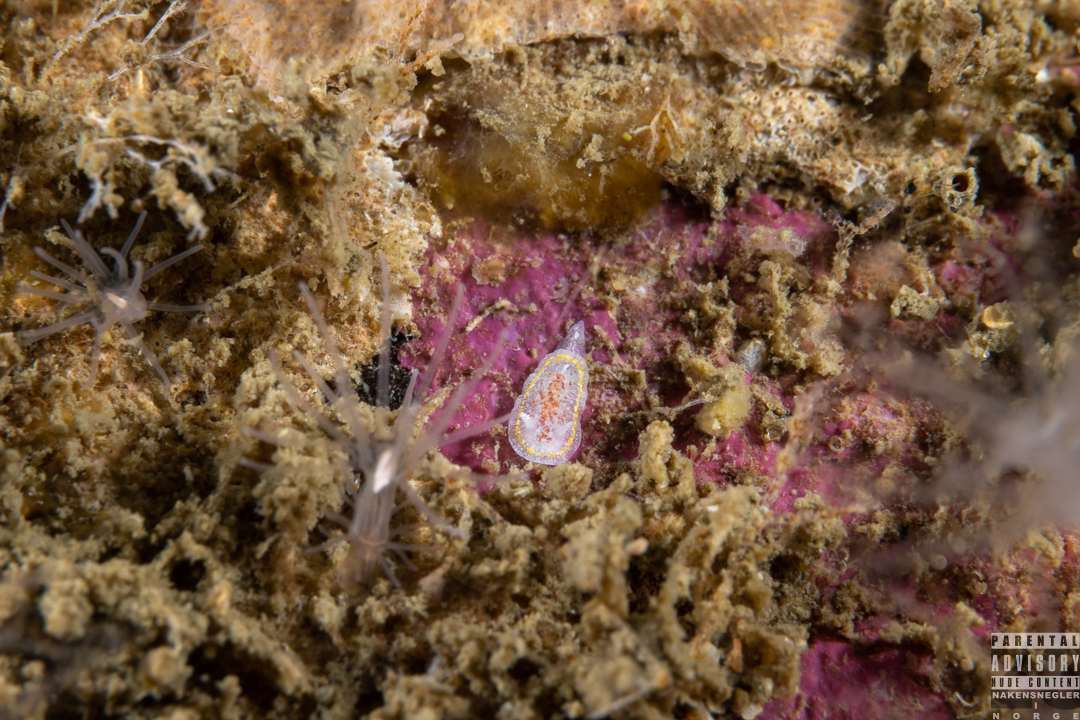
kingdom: Animalia
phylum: Mollusca
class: Gastropoda
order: Nudibranchia
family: Calycidorididae
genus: Diaphorodoris
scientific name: Diaphorodoris luteocincta
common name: Fried egg nudibranch
